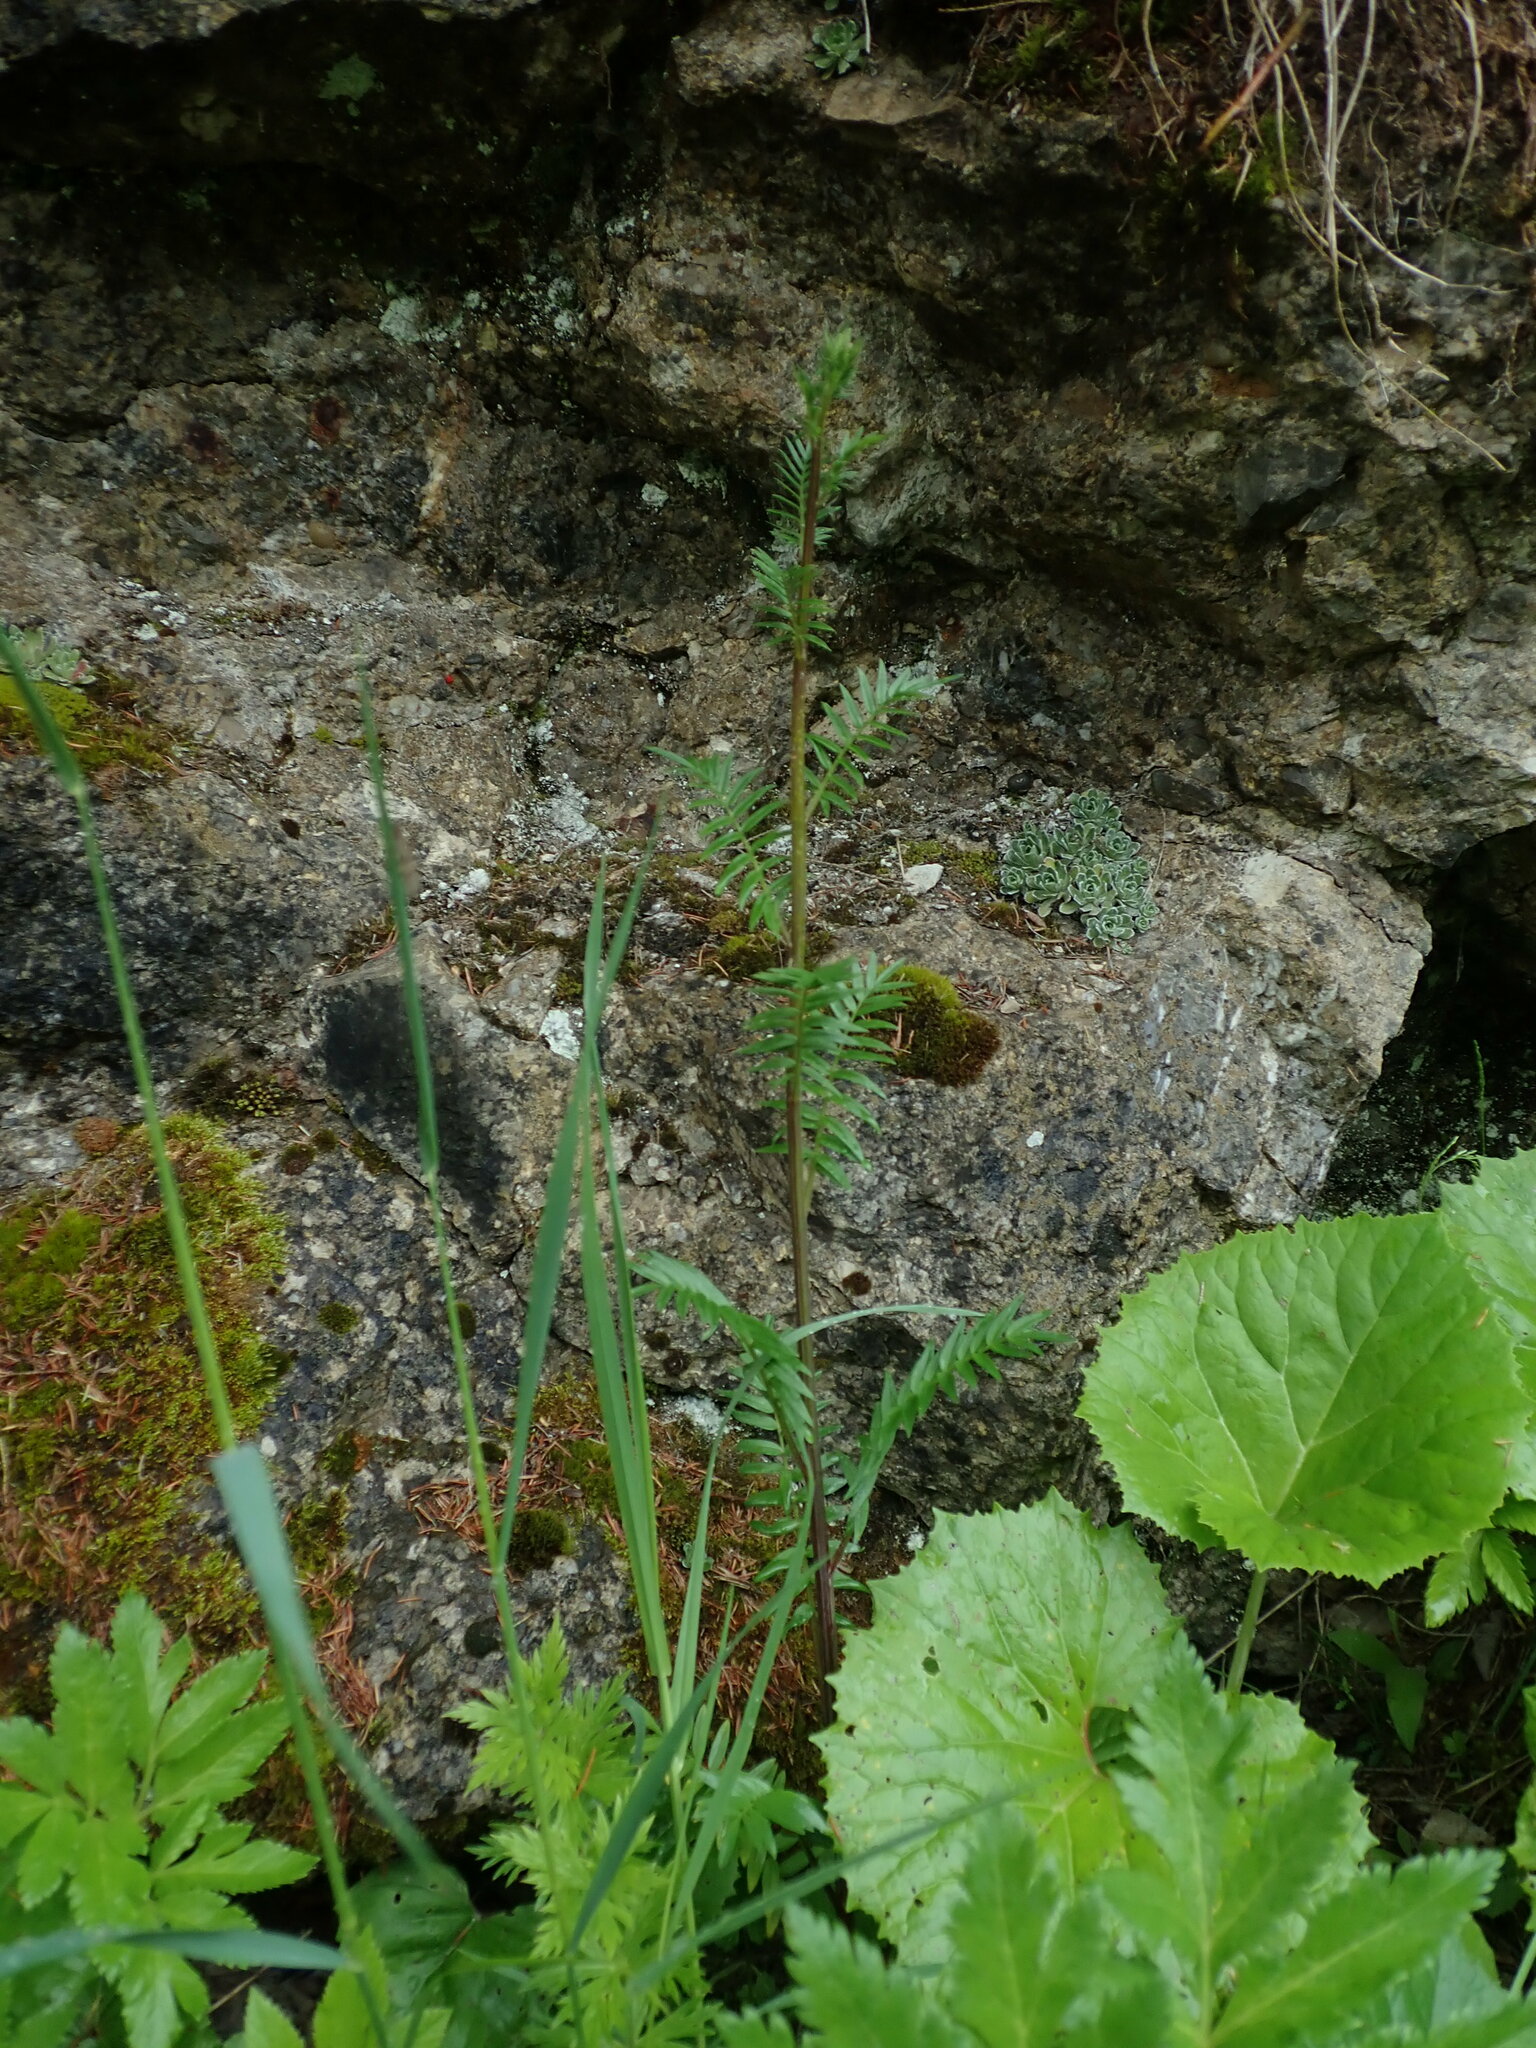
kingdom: Plantae
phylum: Tracheophyta
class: Magnoliopsida
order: Ericales
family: Polemoniaceae
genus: Polemonium
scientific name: Polemonium caeruleum
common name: Jacob's-ladder
